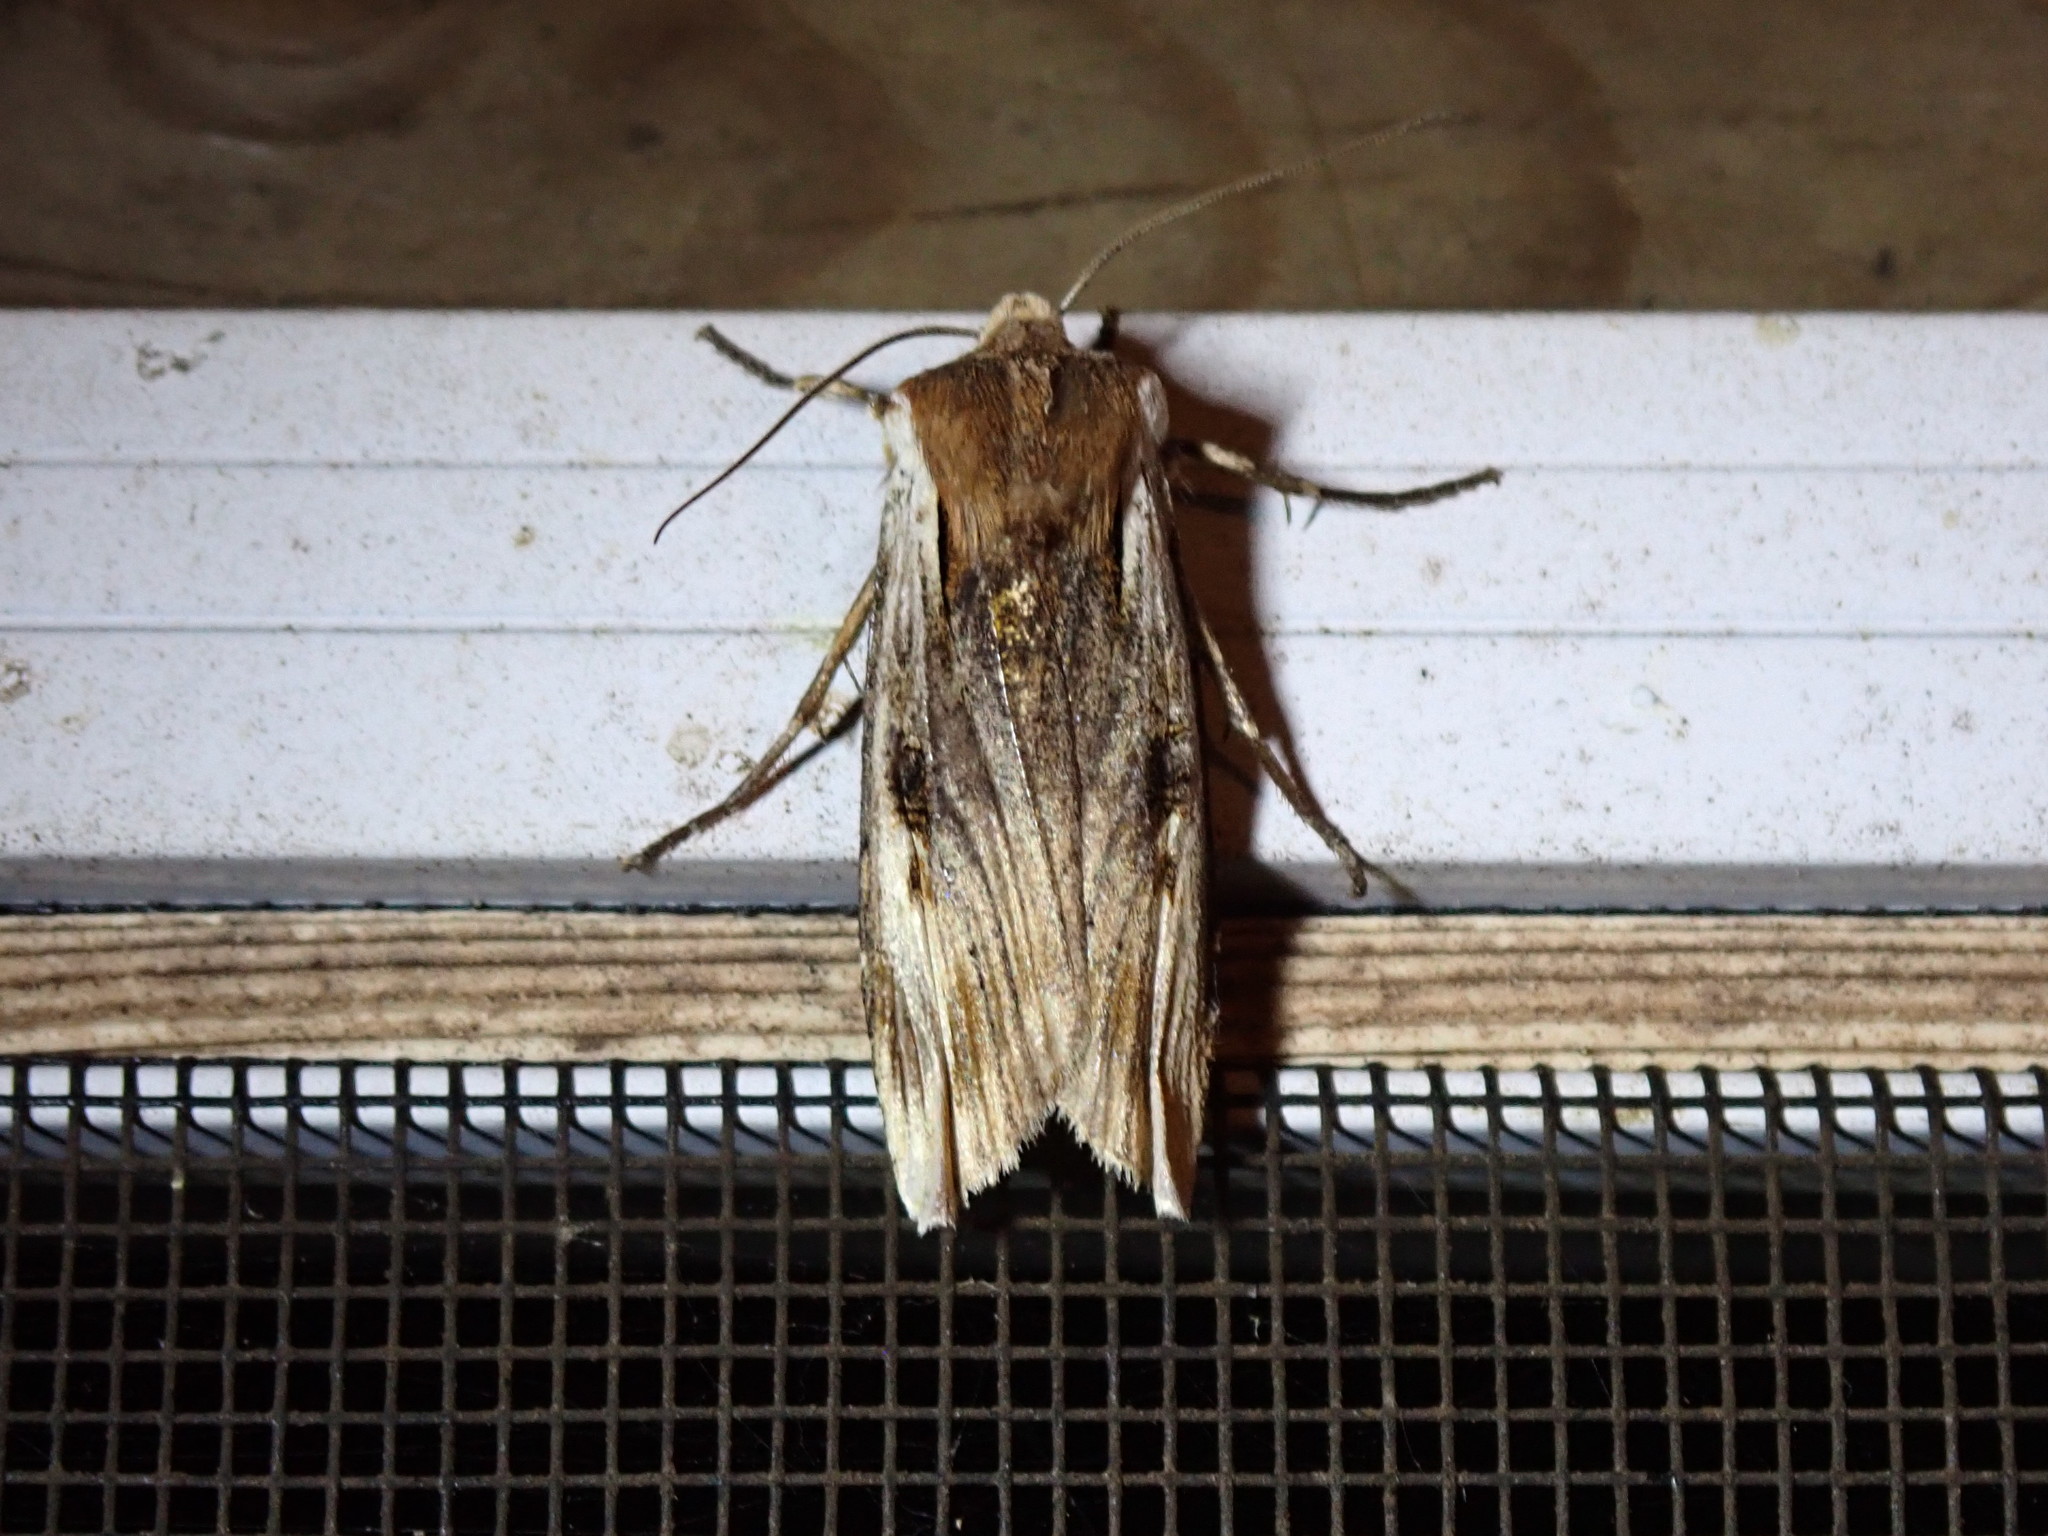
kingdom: Animalia
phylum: Arthropoda
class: Insecta
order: Lepidoptera
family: Noctuidae
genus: Xylena
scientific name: Xylena curvimacula
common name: Dot-and-dash swordgrass moth
